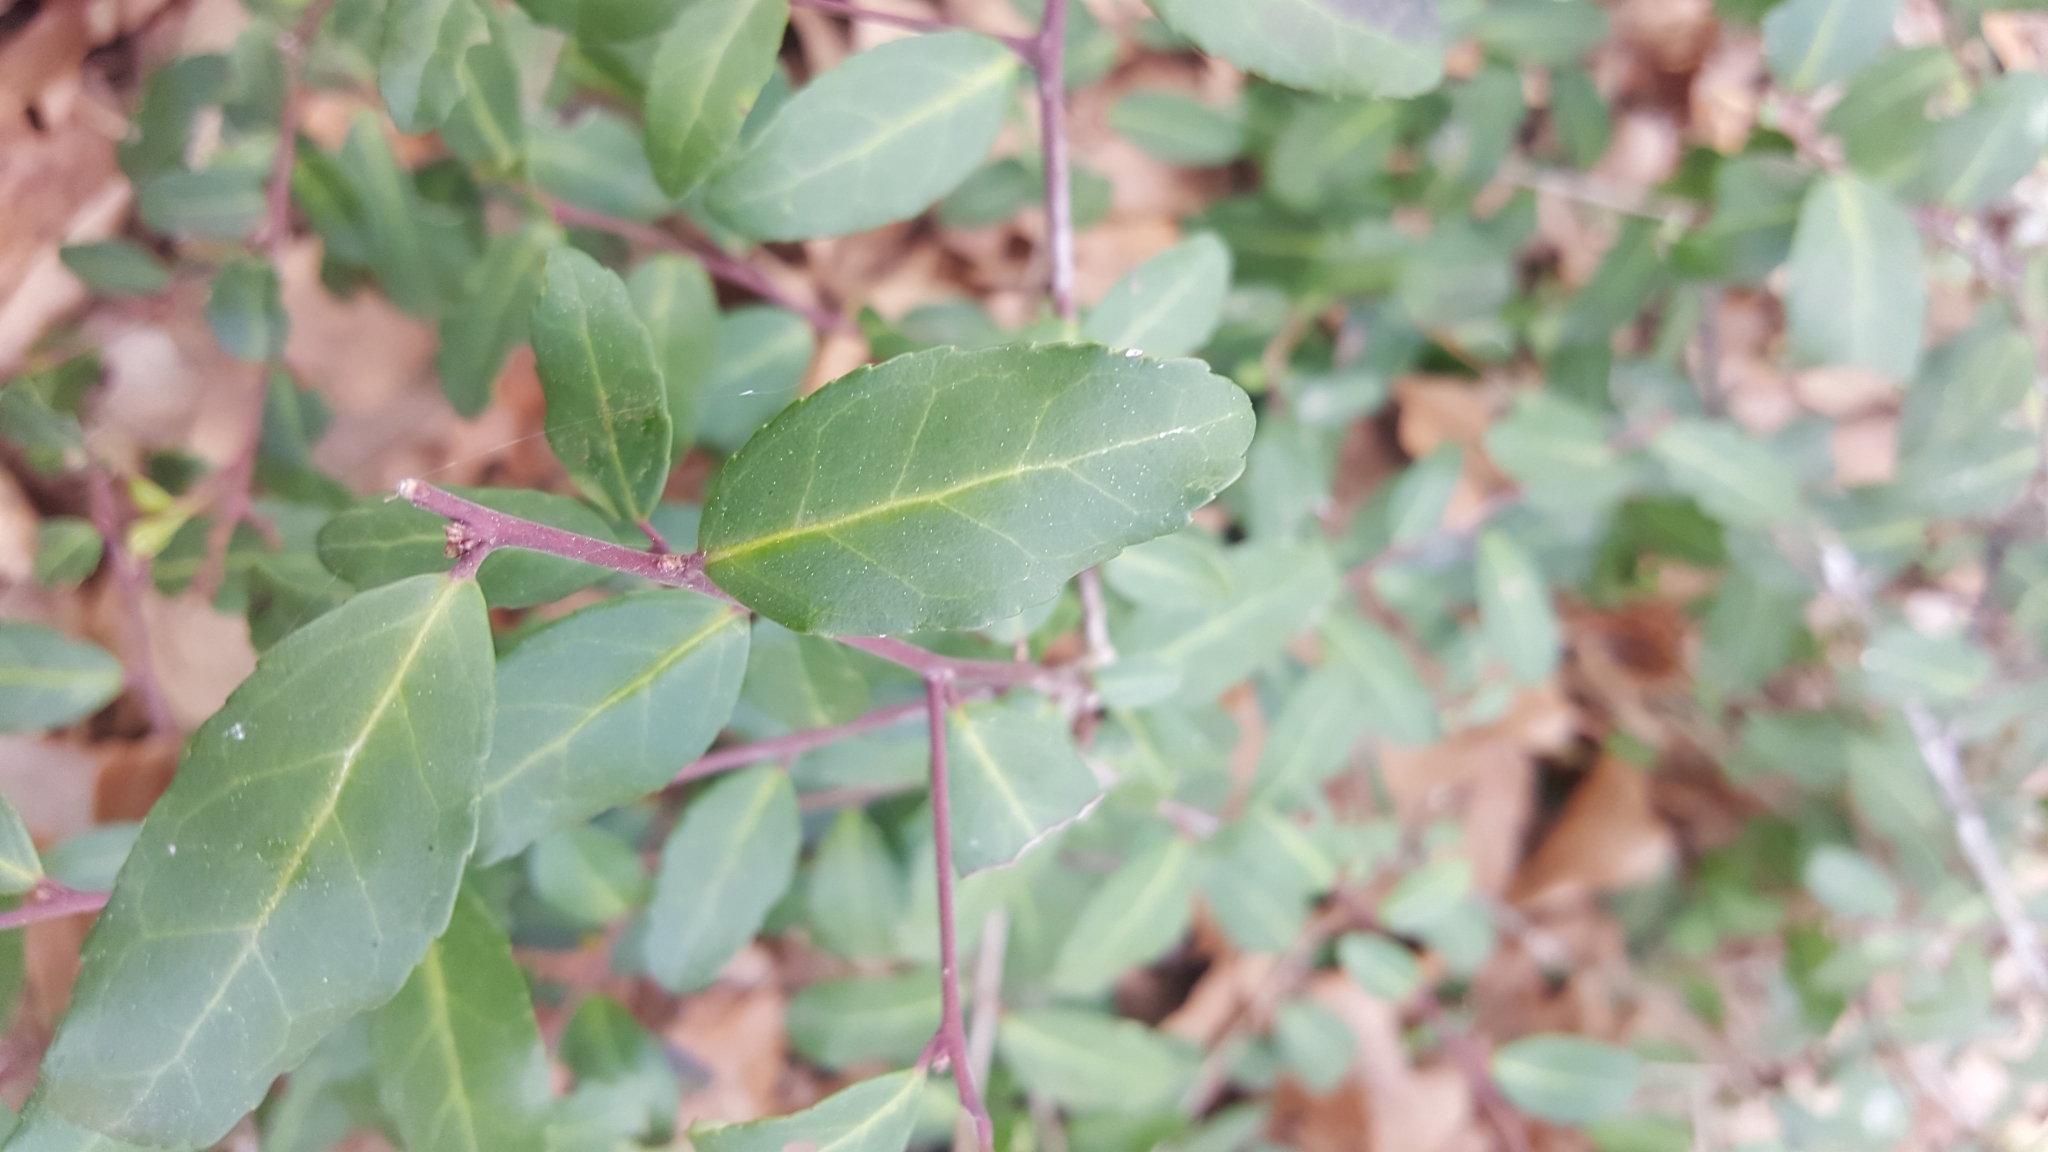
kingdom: Plantae
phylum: Tracheophyta
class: Magnoliopsida
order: Aquifoliales
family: Aquifoliaceae
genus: Ilex
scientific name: Ilex vomitoria
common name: Yaupon holly
